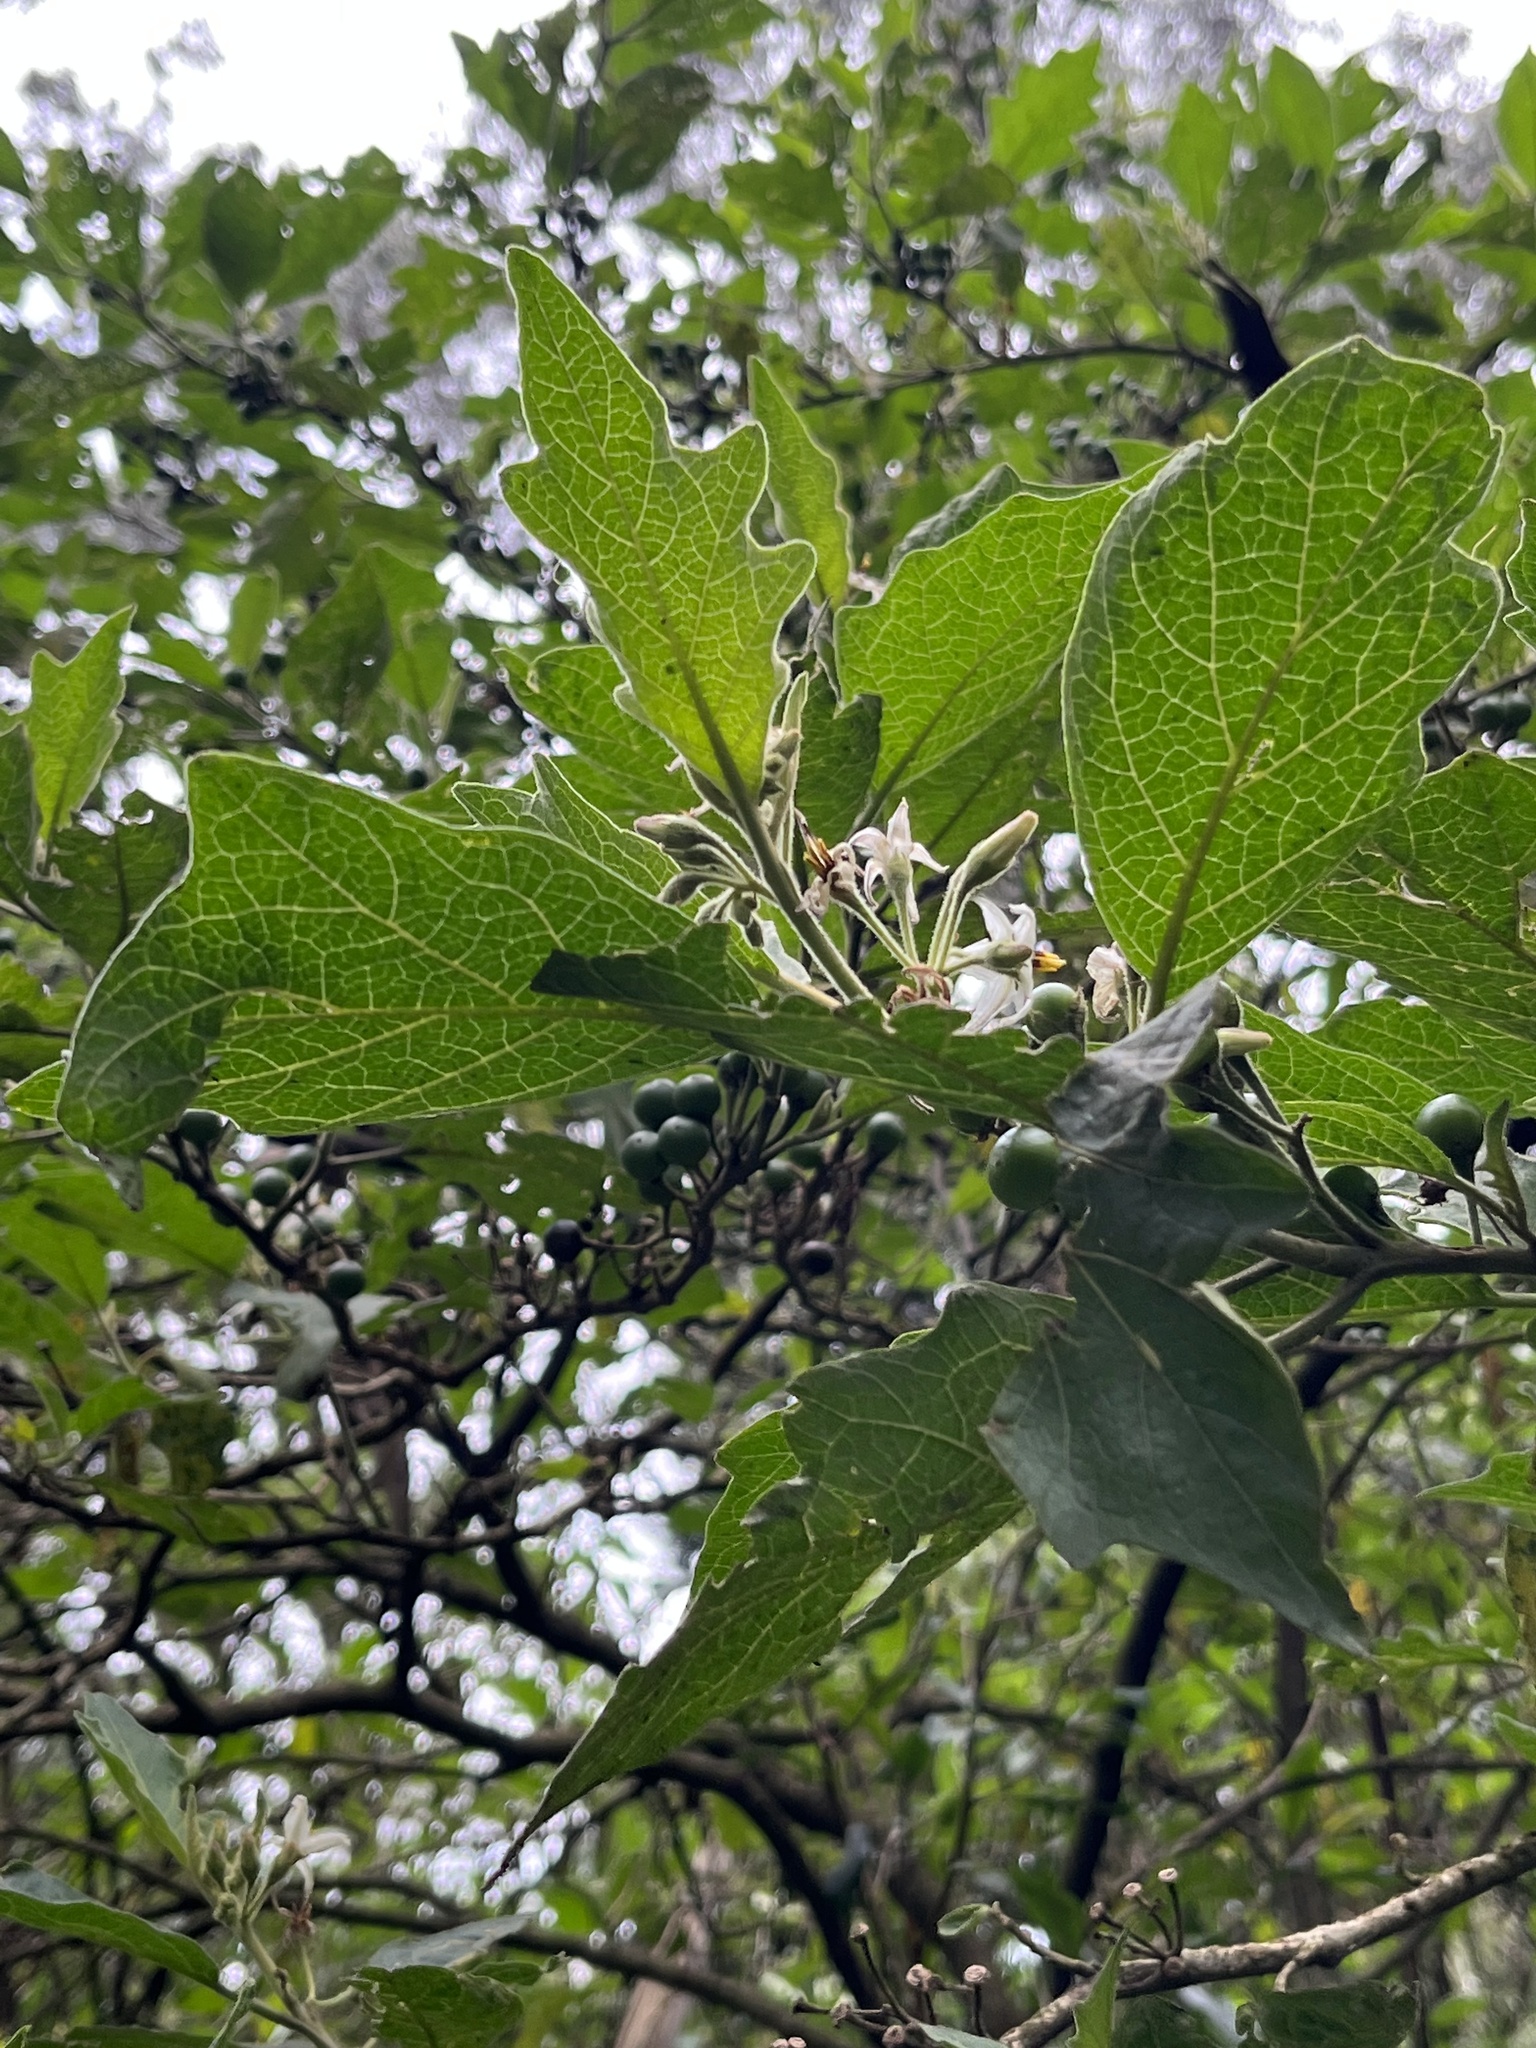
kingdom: Plantae
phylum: Tracheophyta
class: Magnoliopsida
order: Solanales
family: Solanaceae
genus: Solanum
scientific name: Solanum stellatiglandulosum
